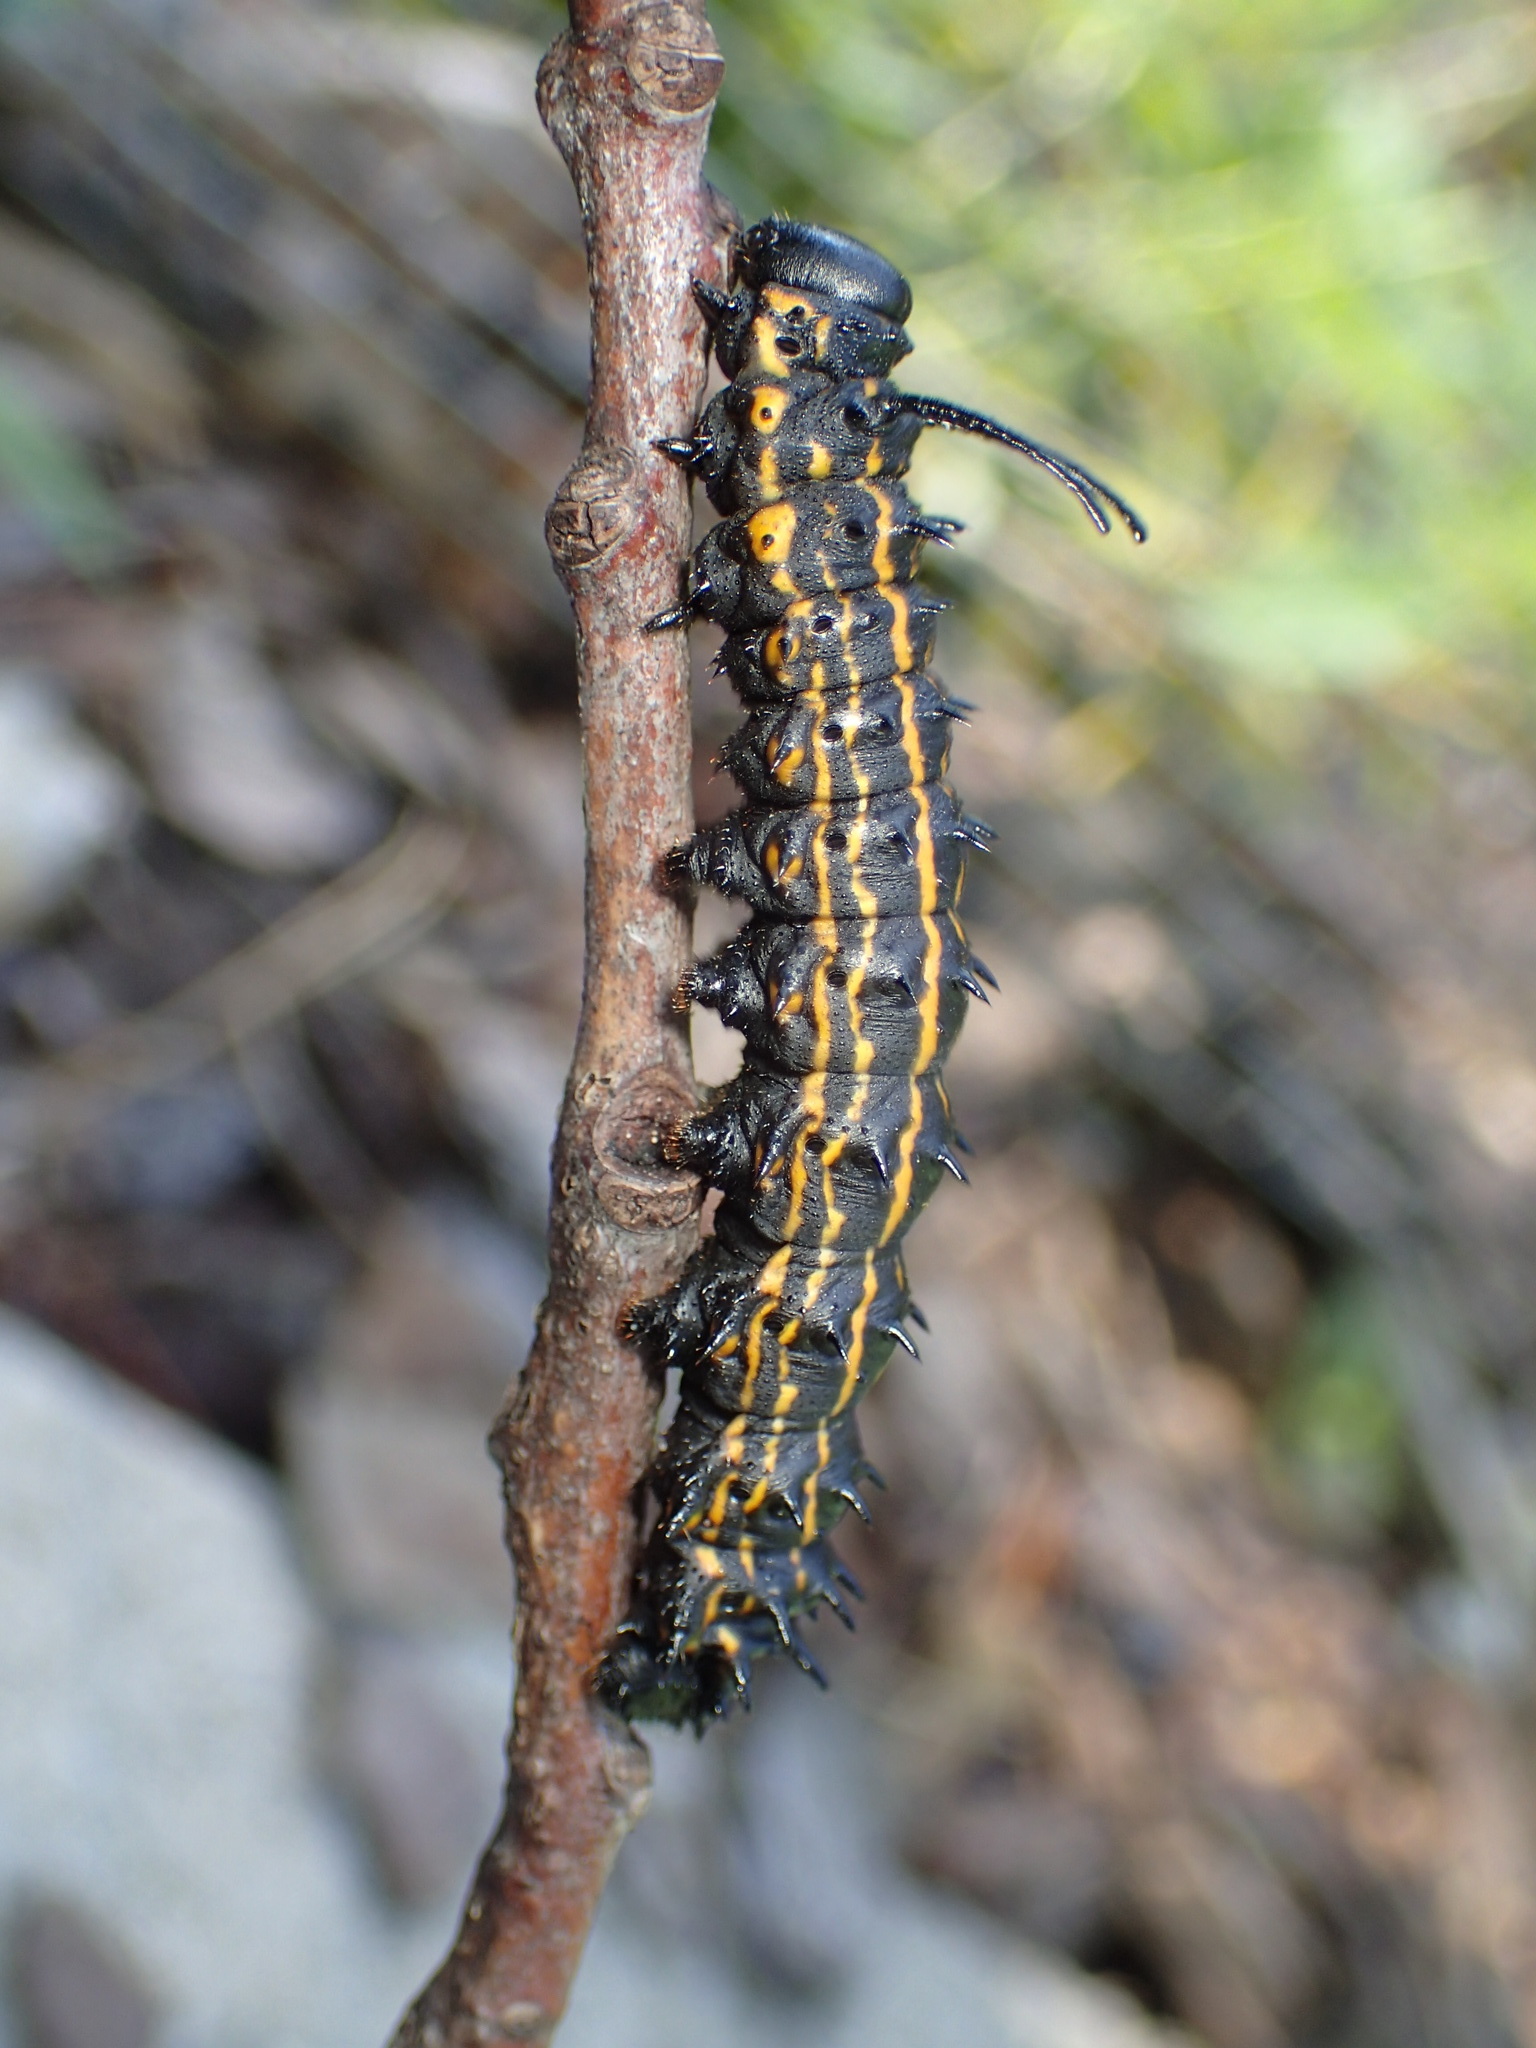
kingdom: Animalia
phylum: Arthropoda
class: Insecta
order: Lepidoptera
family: Saturniidae
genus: Anisota
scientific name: Anisota senatoria
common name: Orange-striped oakworm moth
